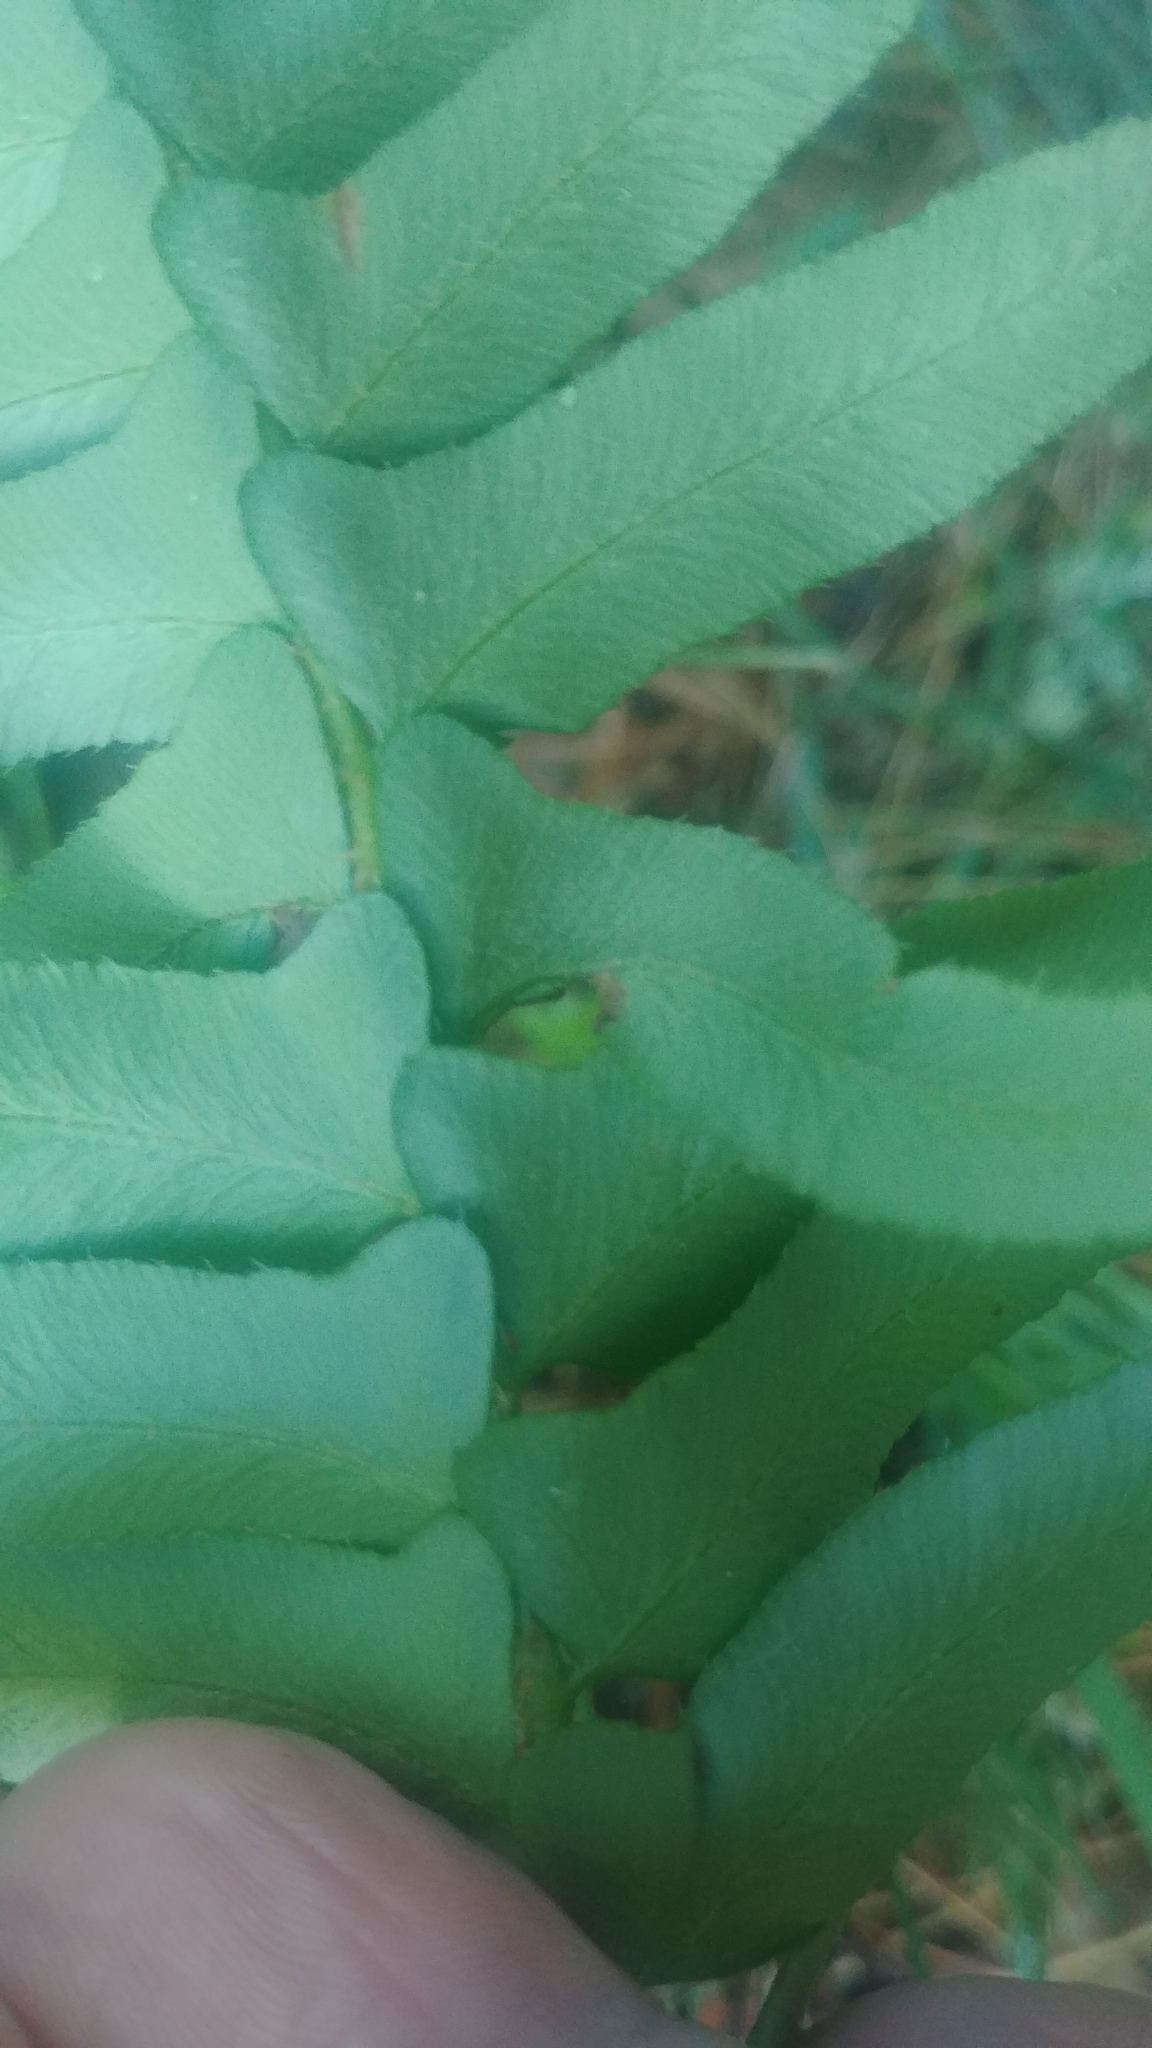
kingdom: Plantae
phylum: Tracheophyta
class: Polypodiopsida
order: Polypodiales
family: Dryopteridaceae
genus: Polystichum
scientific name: Polystichum acrostichoides
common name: Christmas fern
